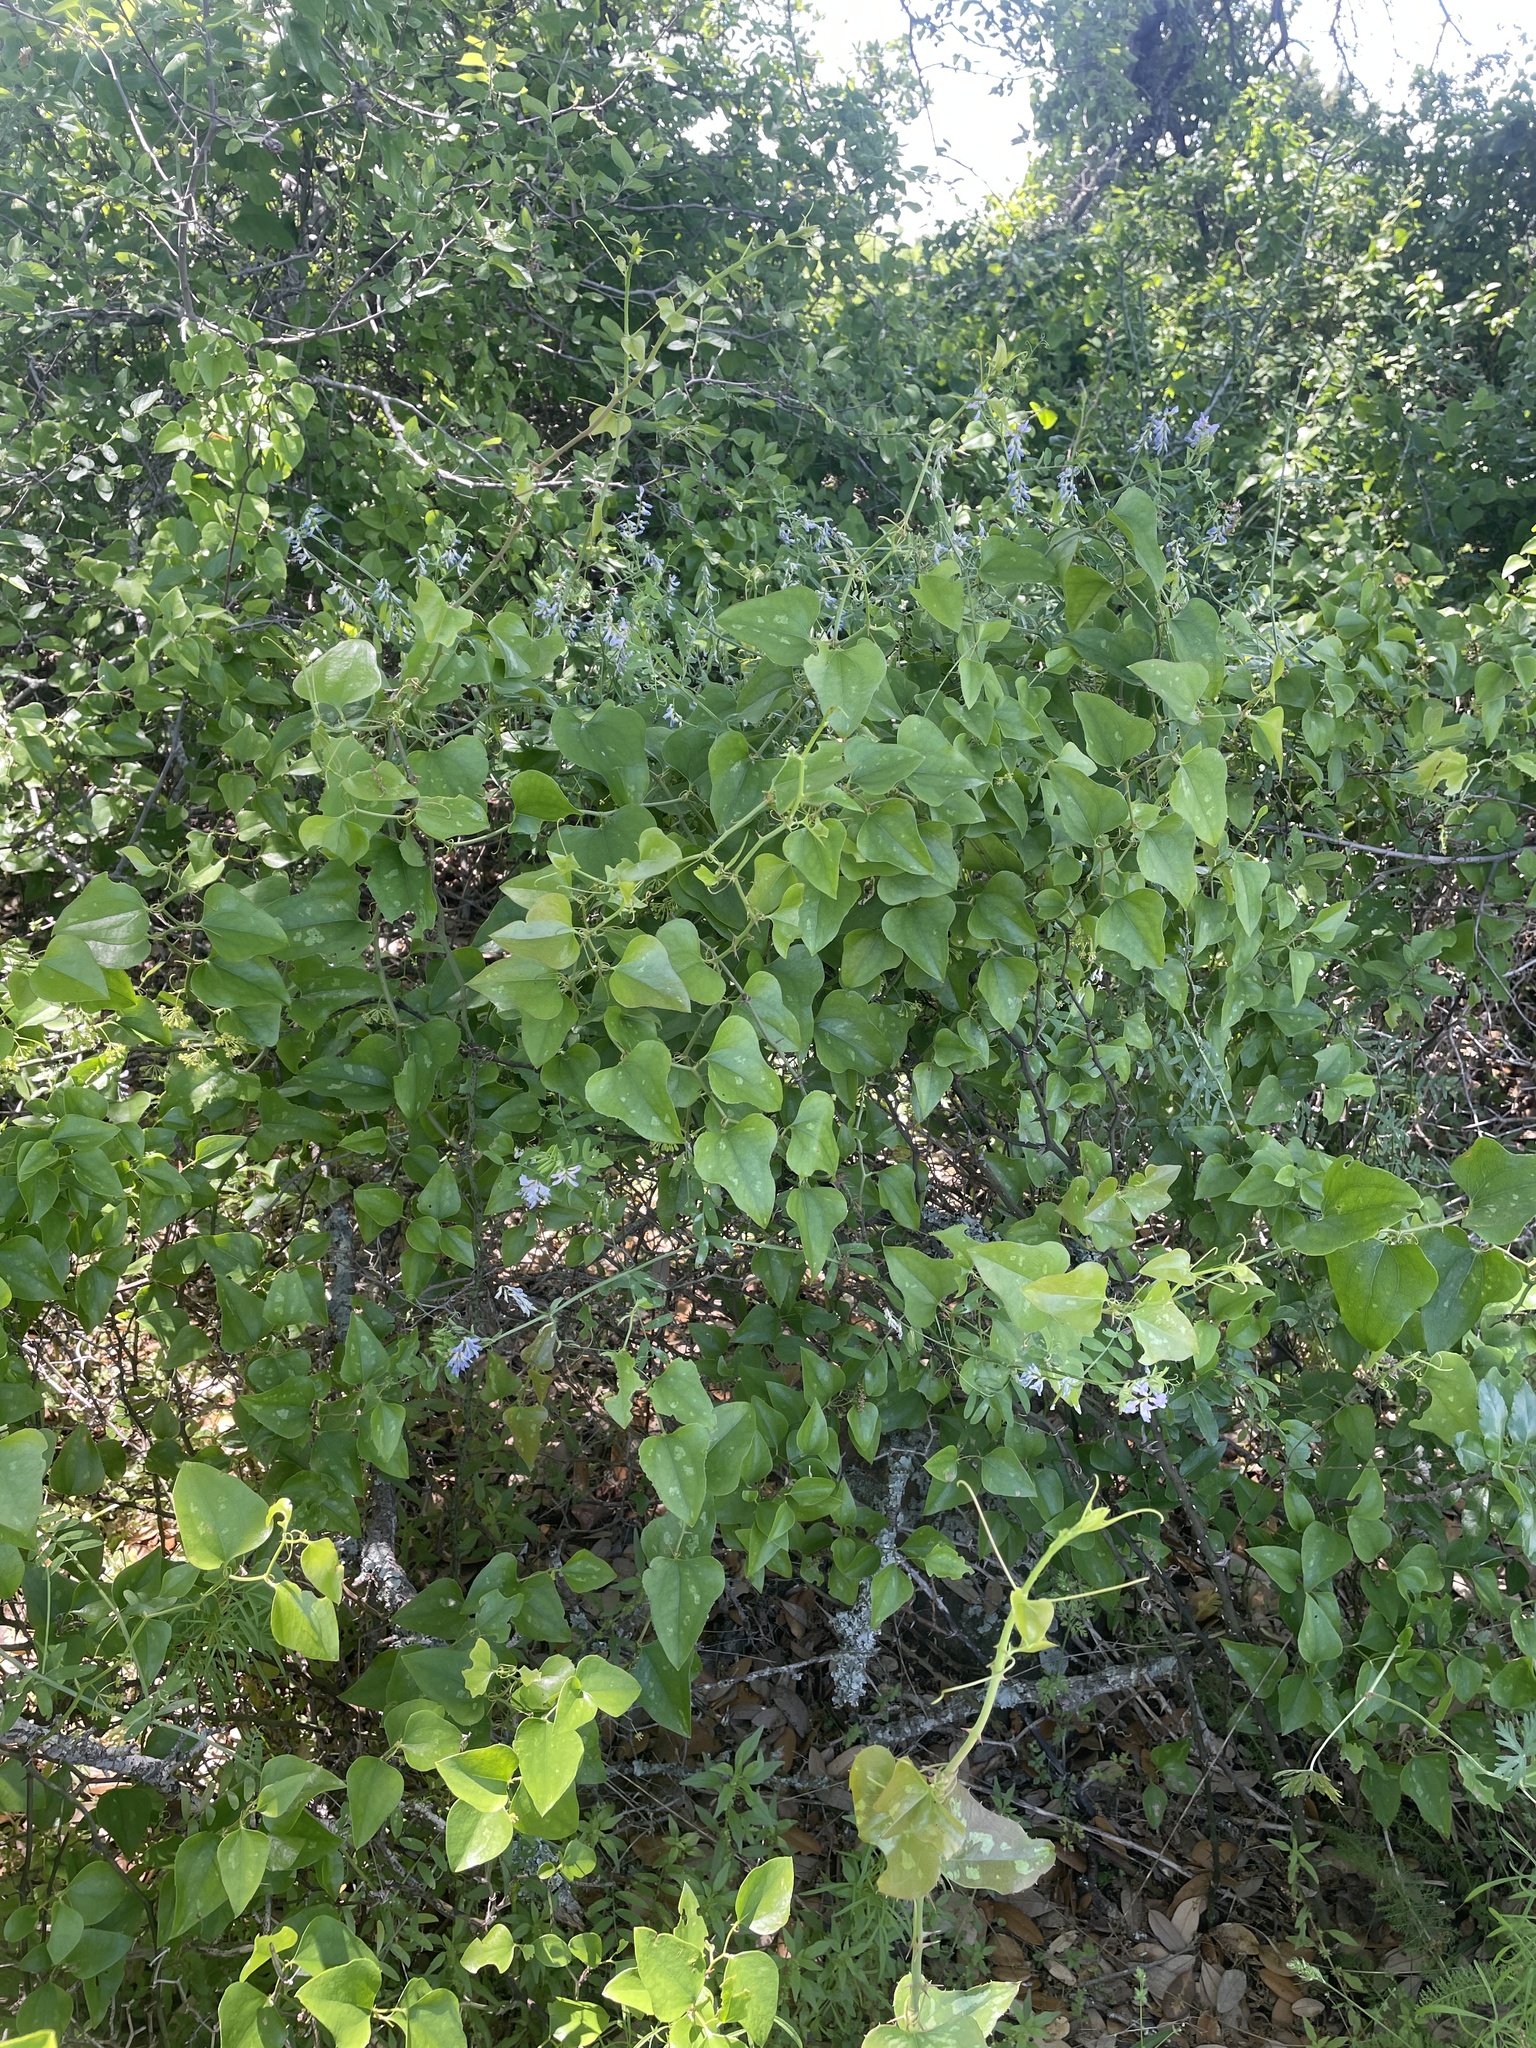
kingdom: Plantae
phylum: Tracheophyta
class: Liliopsida
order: Liliales
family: Smilacaceae
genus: Smilax
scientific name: Smilax bona-nox
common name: Catbrier
